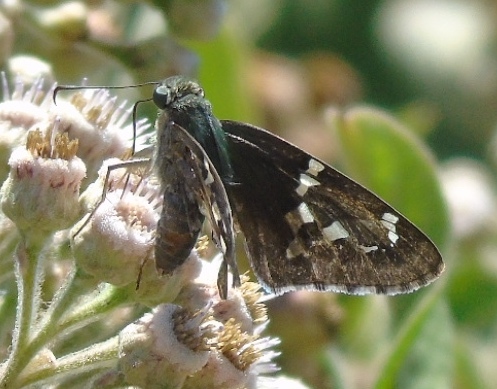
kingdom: Animalia
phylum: Arthropoda
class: Insecta
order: Lepidoptera
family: Hesperiidae
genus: Urbanus
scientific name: Urbanus proteus
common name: Long-tailed skipper
